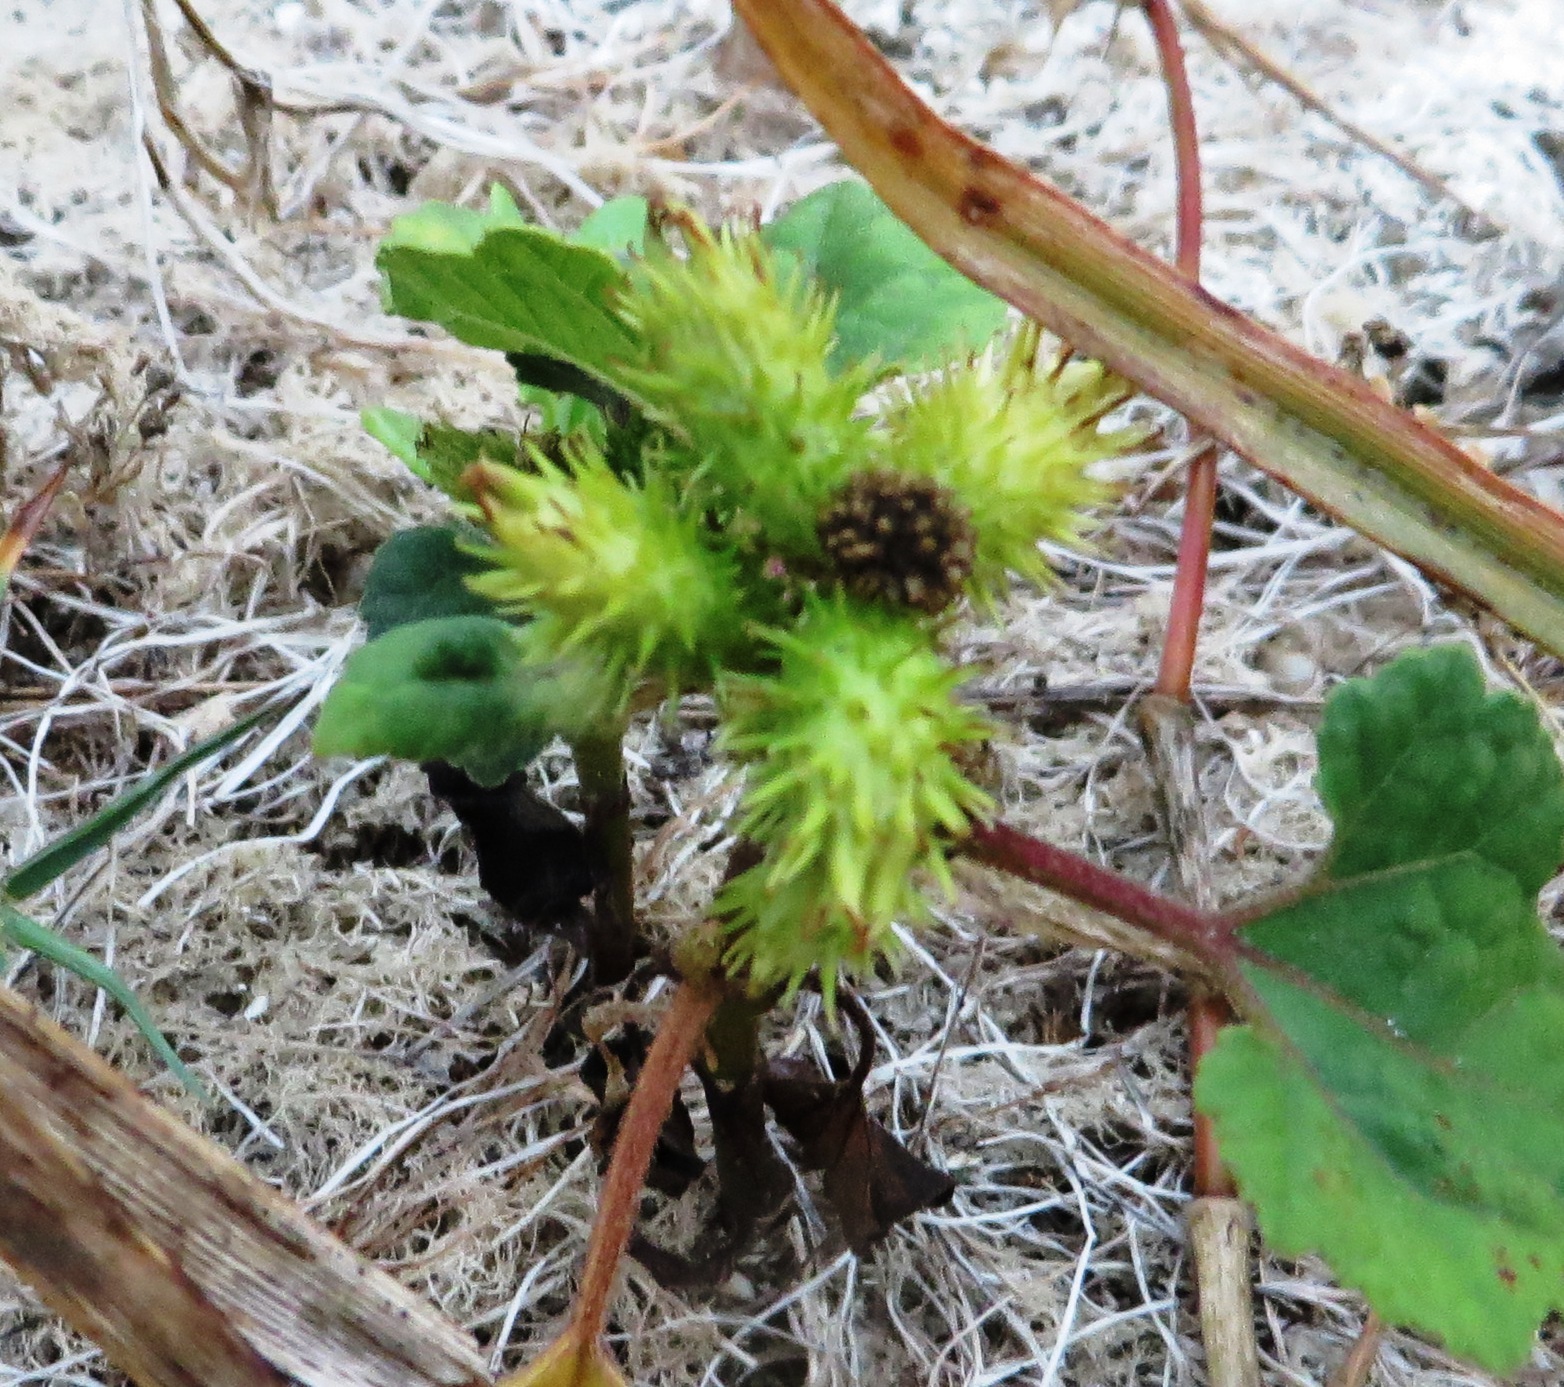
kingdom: Plantae
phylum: Tracheophyta
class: Magnoliopsida
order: Asterales
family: Asteraceae
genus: Xanthium
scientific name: Xanthium strumarium
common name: Rough cocklebur
